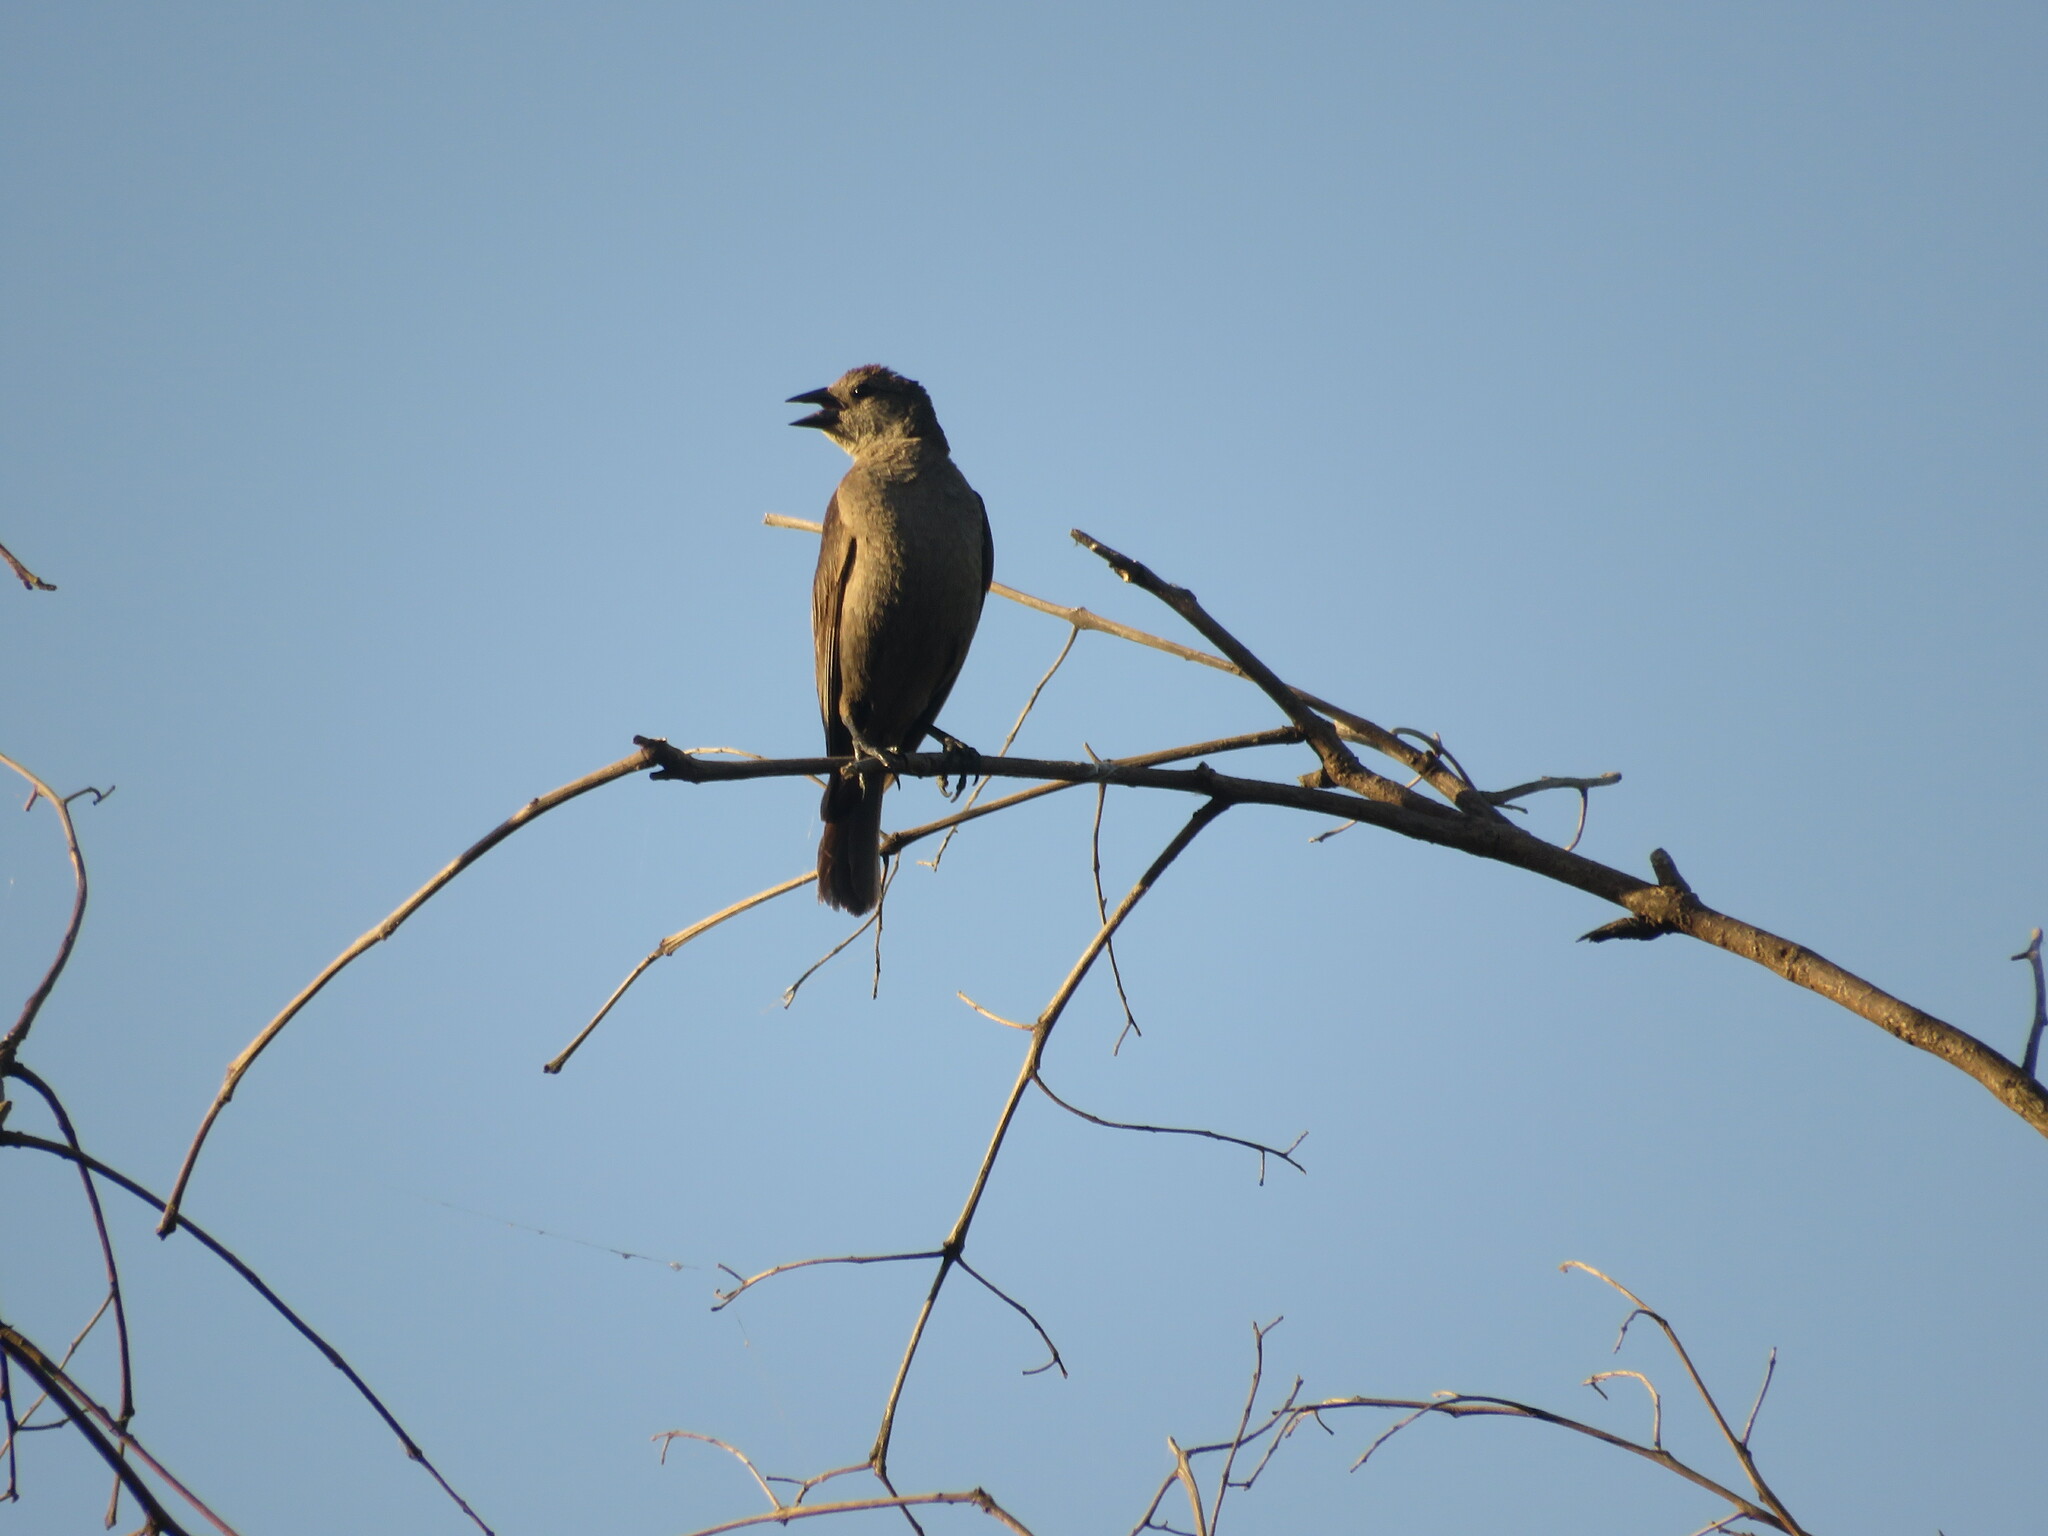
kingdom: Animalia
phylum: Chordata
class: Aves
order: Passeriformes
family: Icteridae
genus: Agelaioides
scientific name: Agelaioides badius
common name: Baywing
